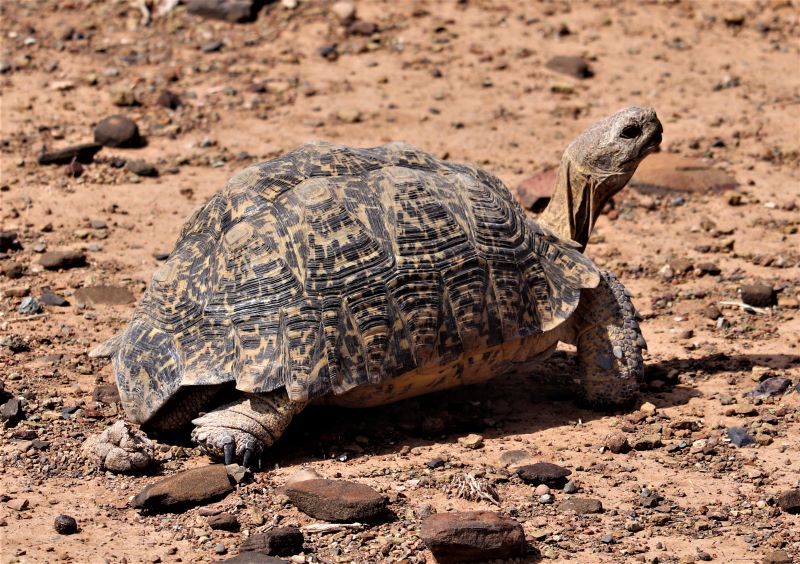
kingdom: Animalia
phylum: Chordata
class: Testudines
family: Testudinidae
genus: Stigmochelys
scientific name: Stigmochelys pardalis
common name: Leopard tortoise
